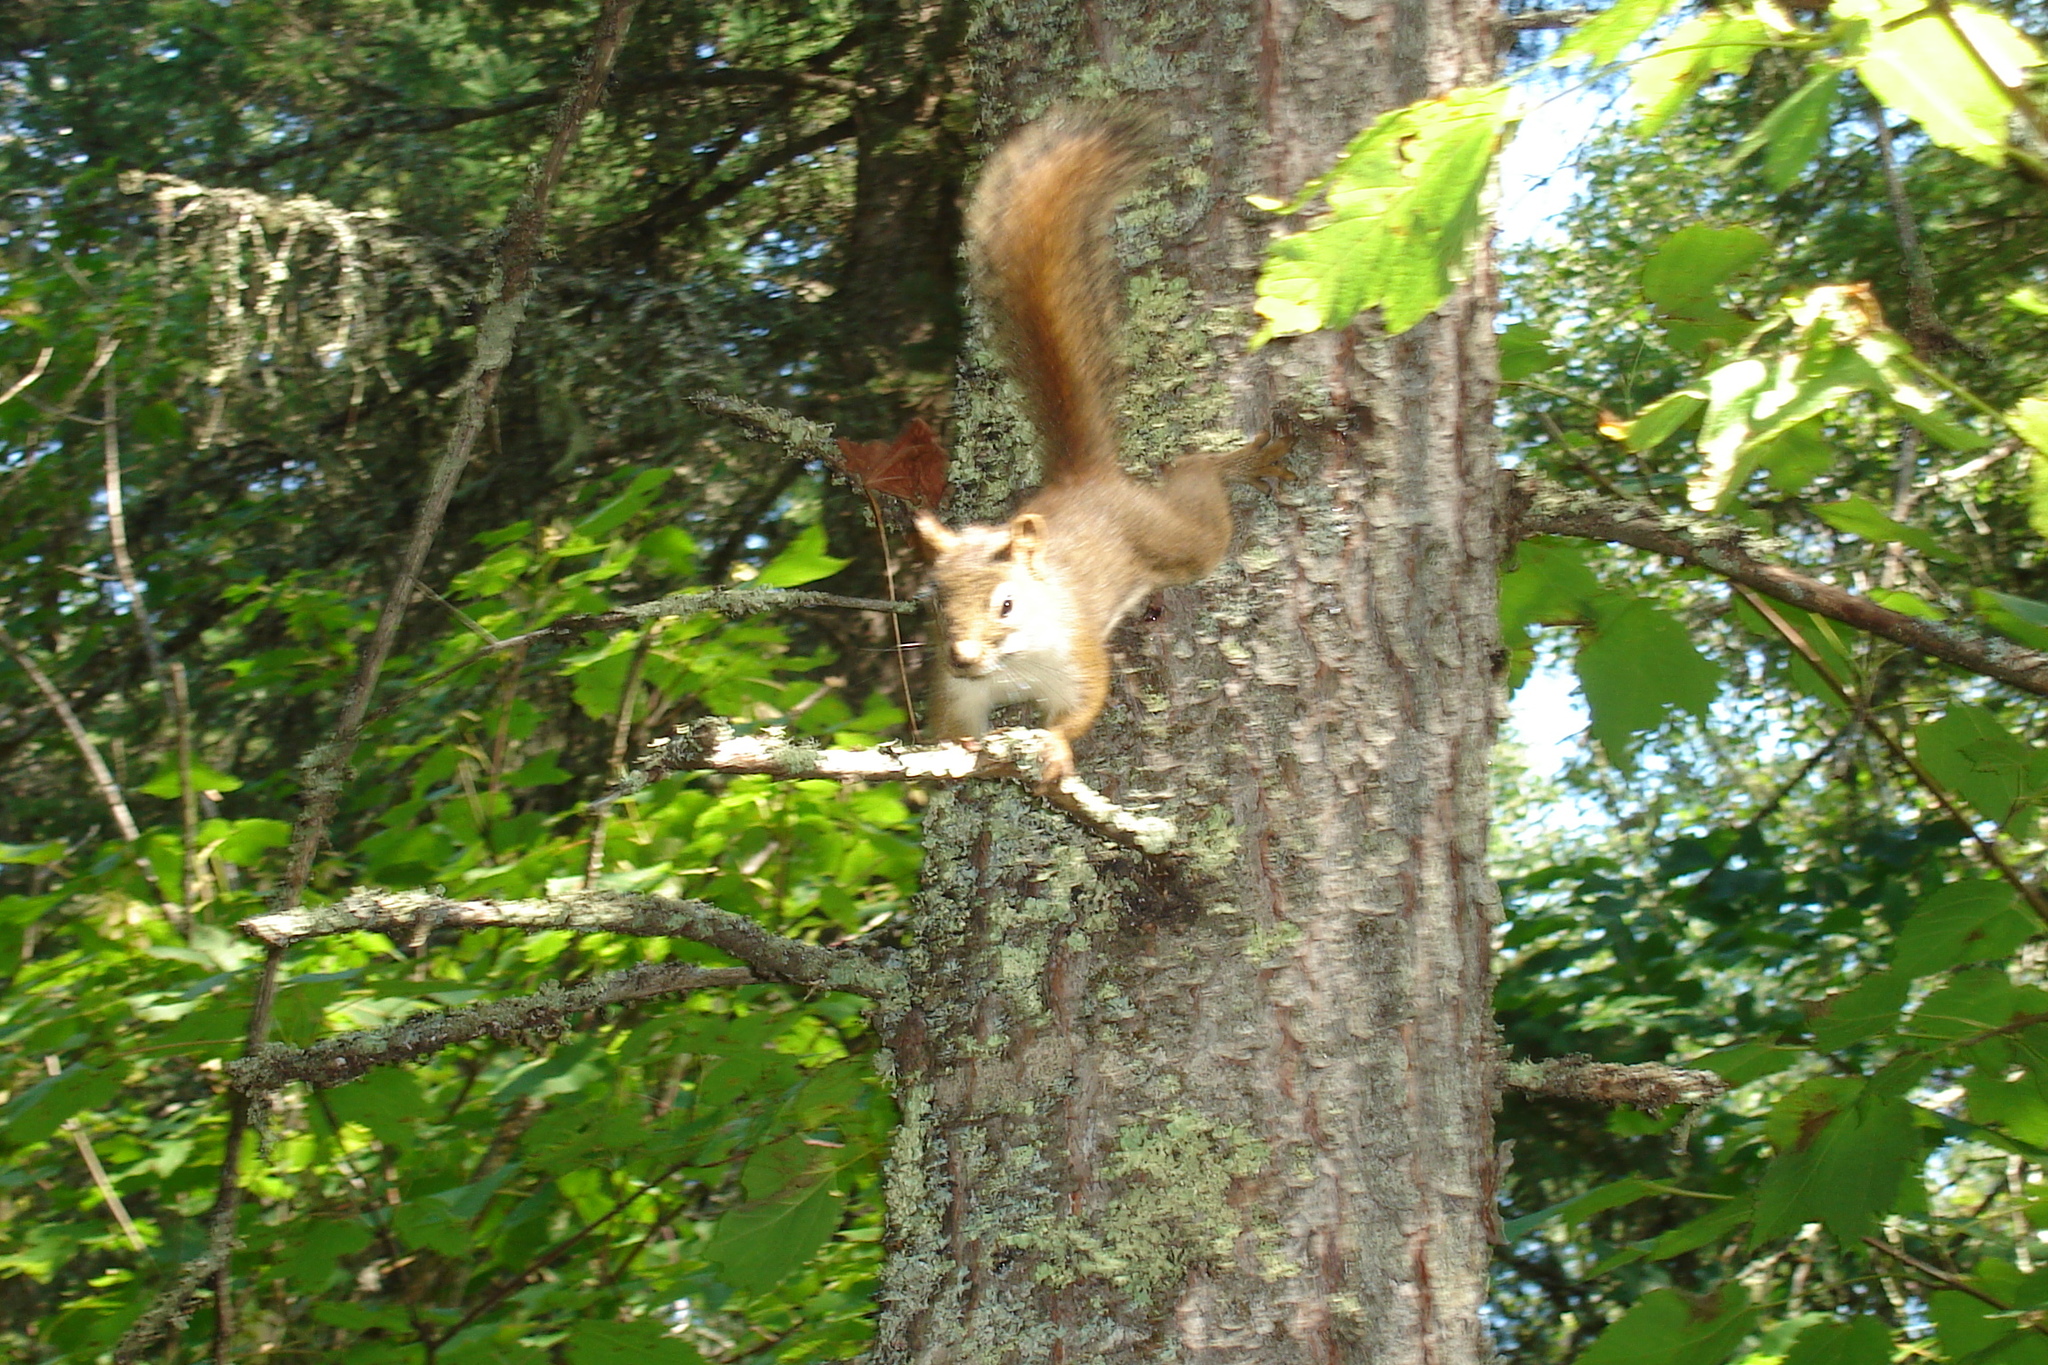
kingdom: Animalia
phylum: Chordata
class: Mammalia
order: Rodentia
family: Sciuridae
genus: Tamiasciurus
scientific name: Tamiasciurus hudsonicus
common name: Red squirrel
